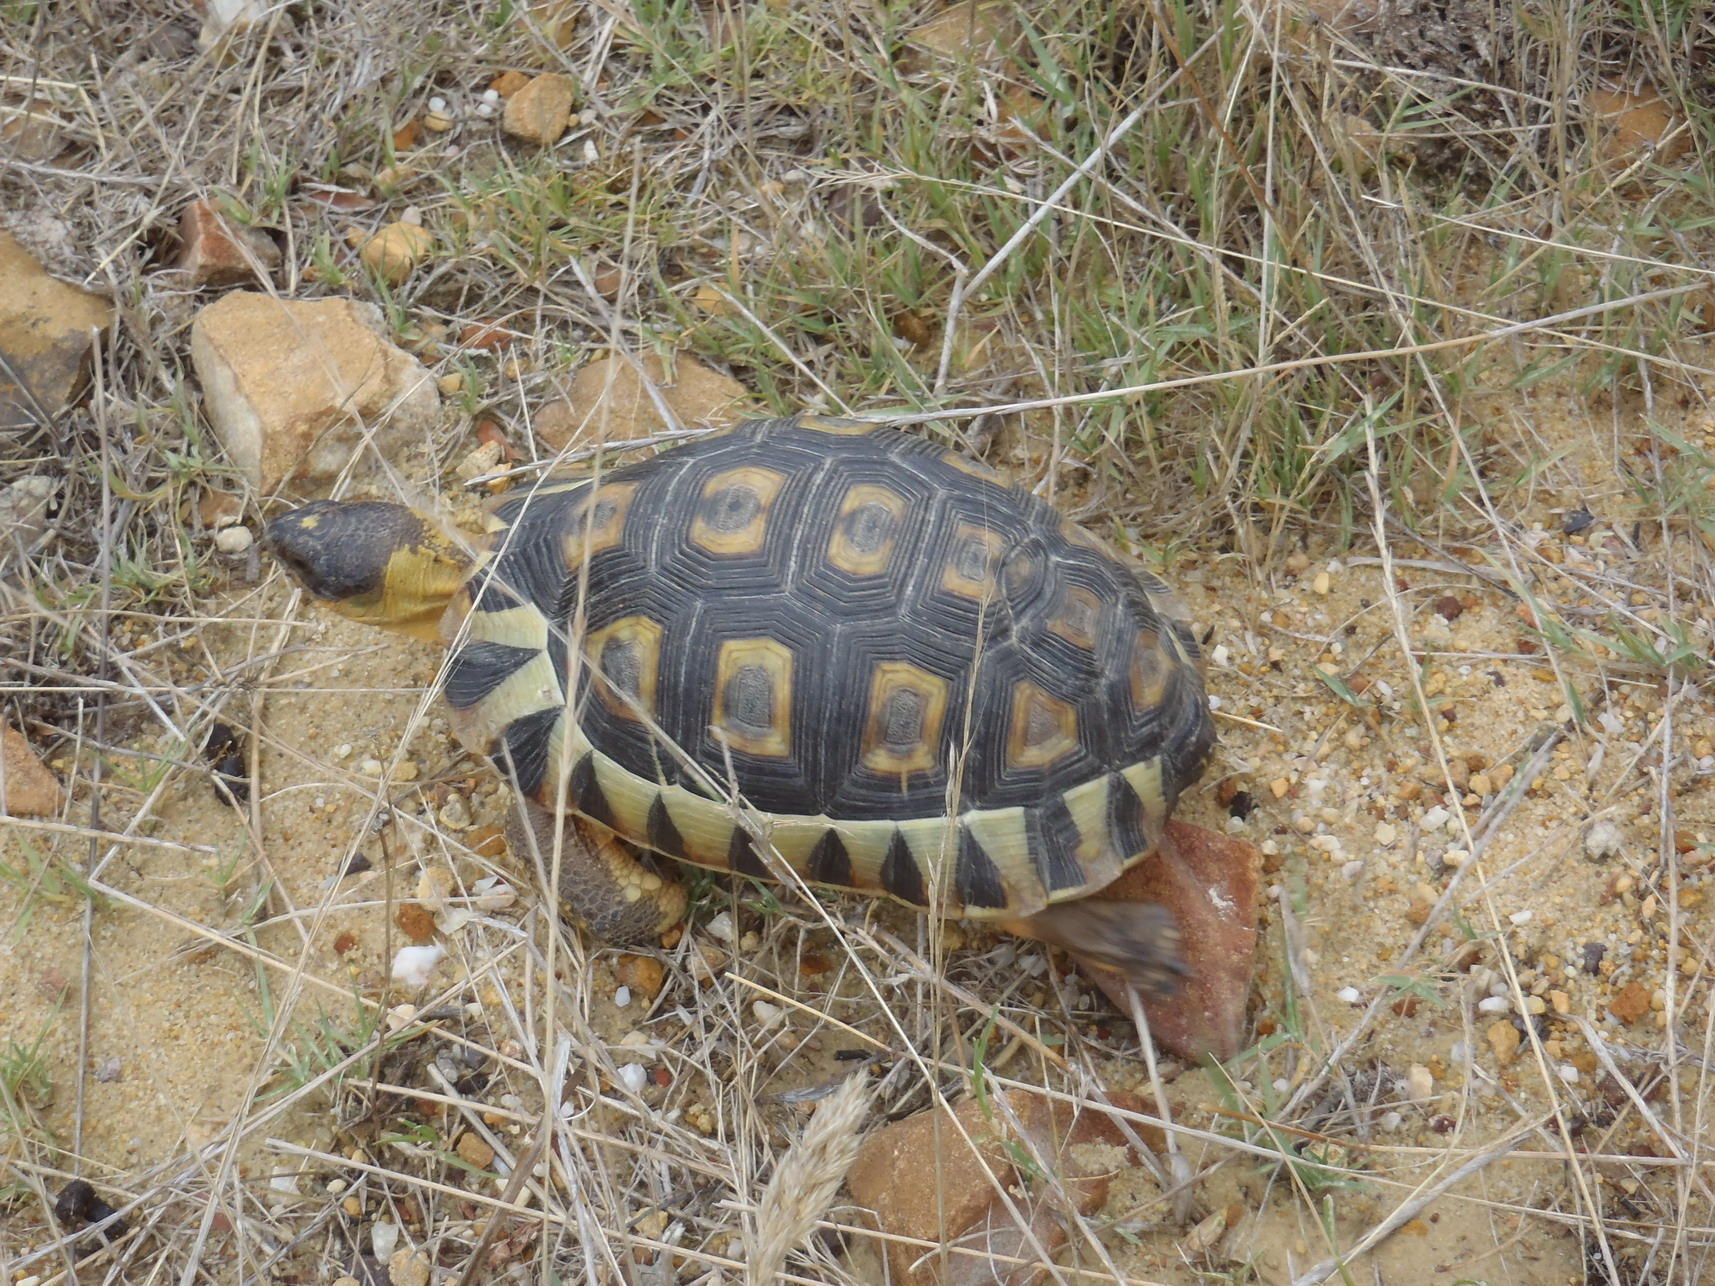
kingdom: Animalia
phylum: Chordata
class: Testudines
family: Testudinidae
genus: Chersina
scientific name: Chersina angulata
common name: South african bowsprit tortoise
